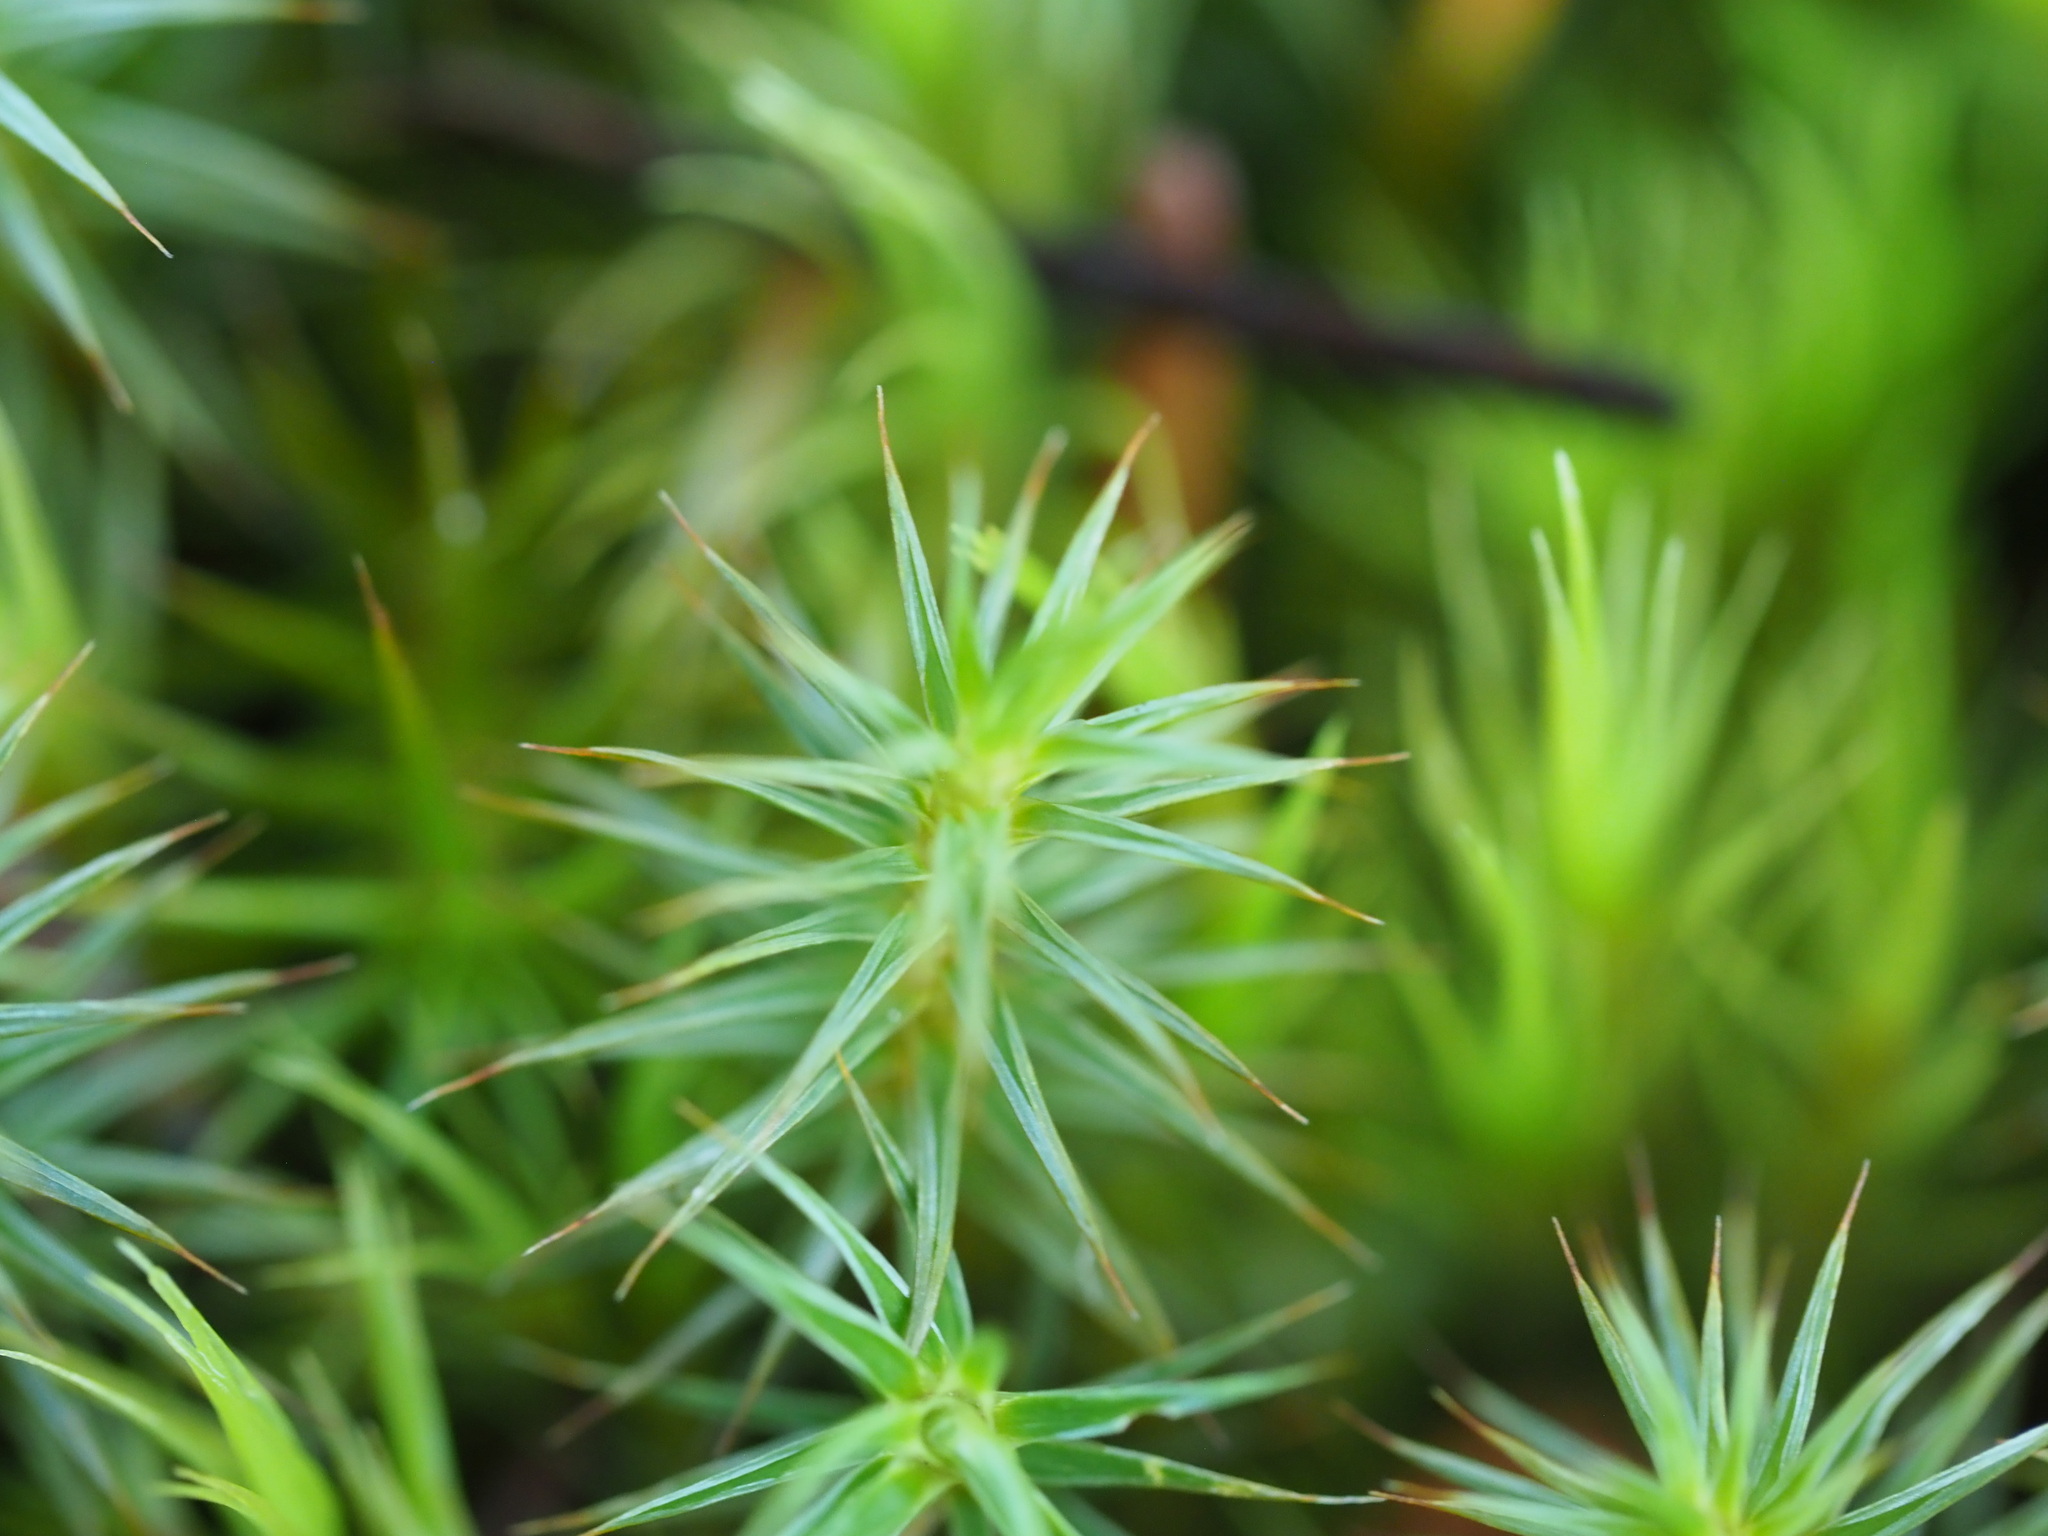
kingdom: Plantae
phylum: Bryophyta
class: Polytrichopsida
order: Polytrichales
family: Polytrichaceae
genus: Polytrichum
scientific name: Polytrichum juniperinum
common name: Juniper haircap moss
